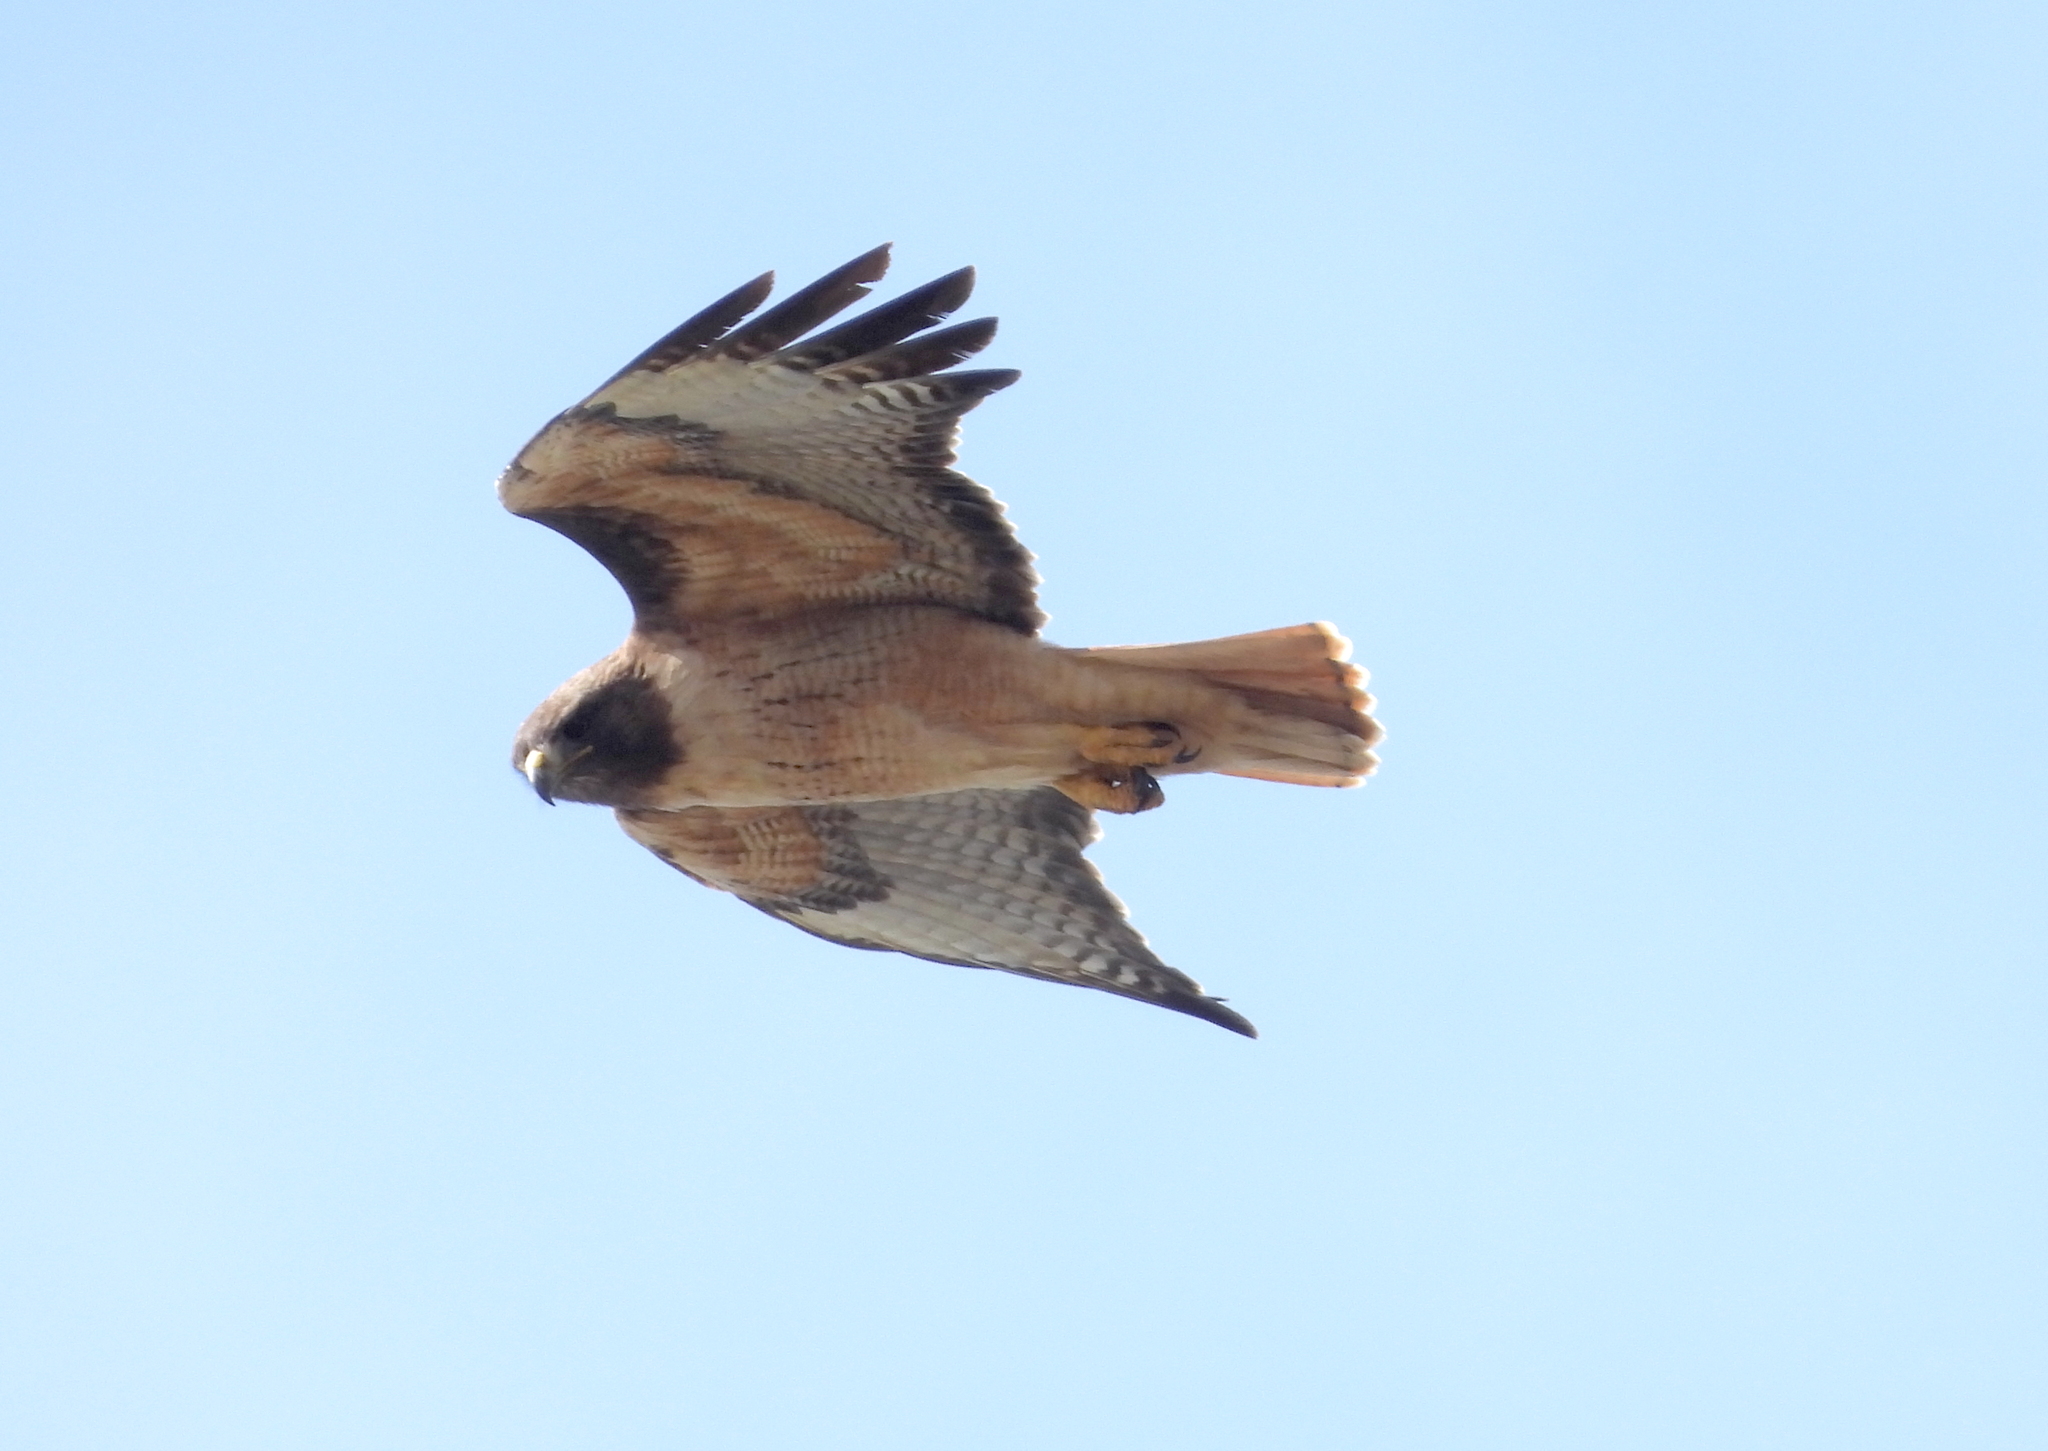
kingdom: Animalia
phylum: Chordata
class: Aves
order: Accipitriformes
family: Accipitridae
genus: Buteo
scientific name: Buteo jamaicensis
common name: Red-tailed hawk
